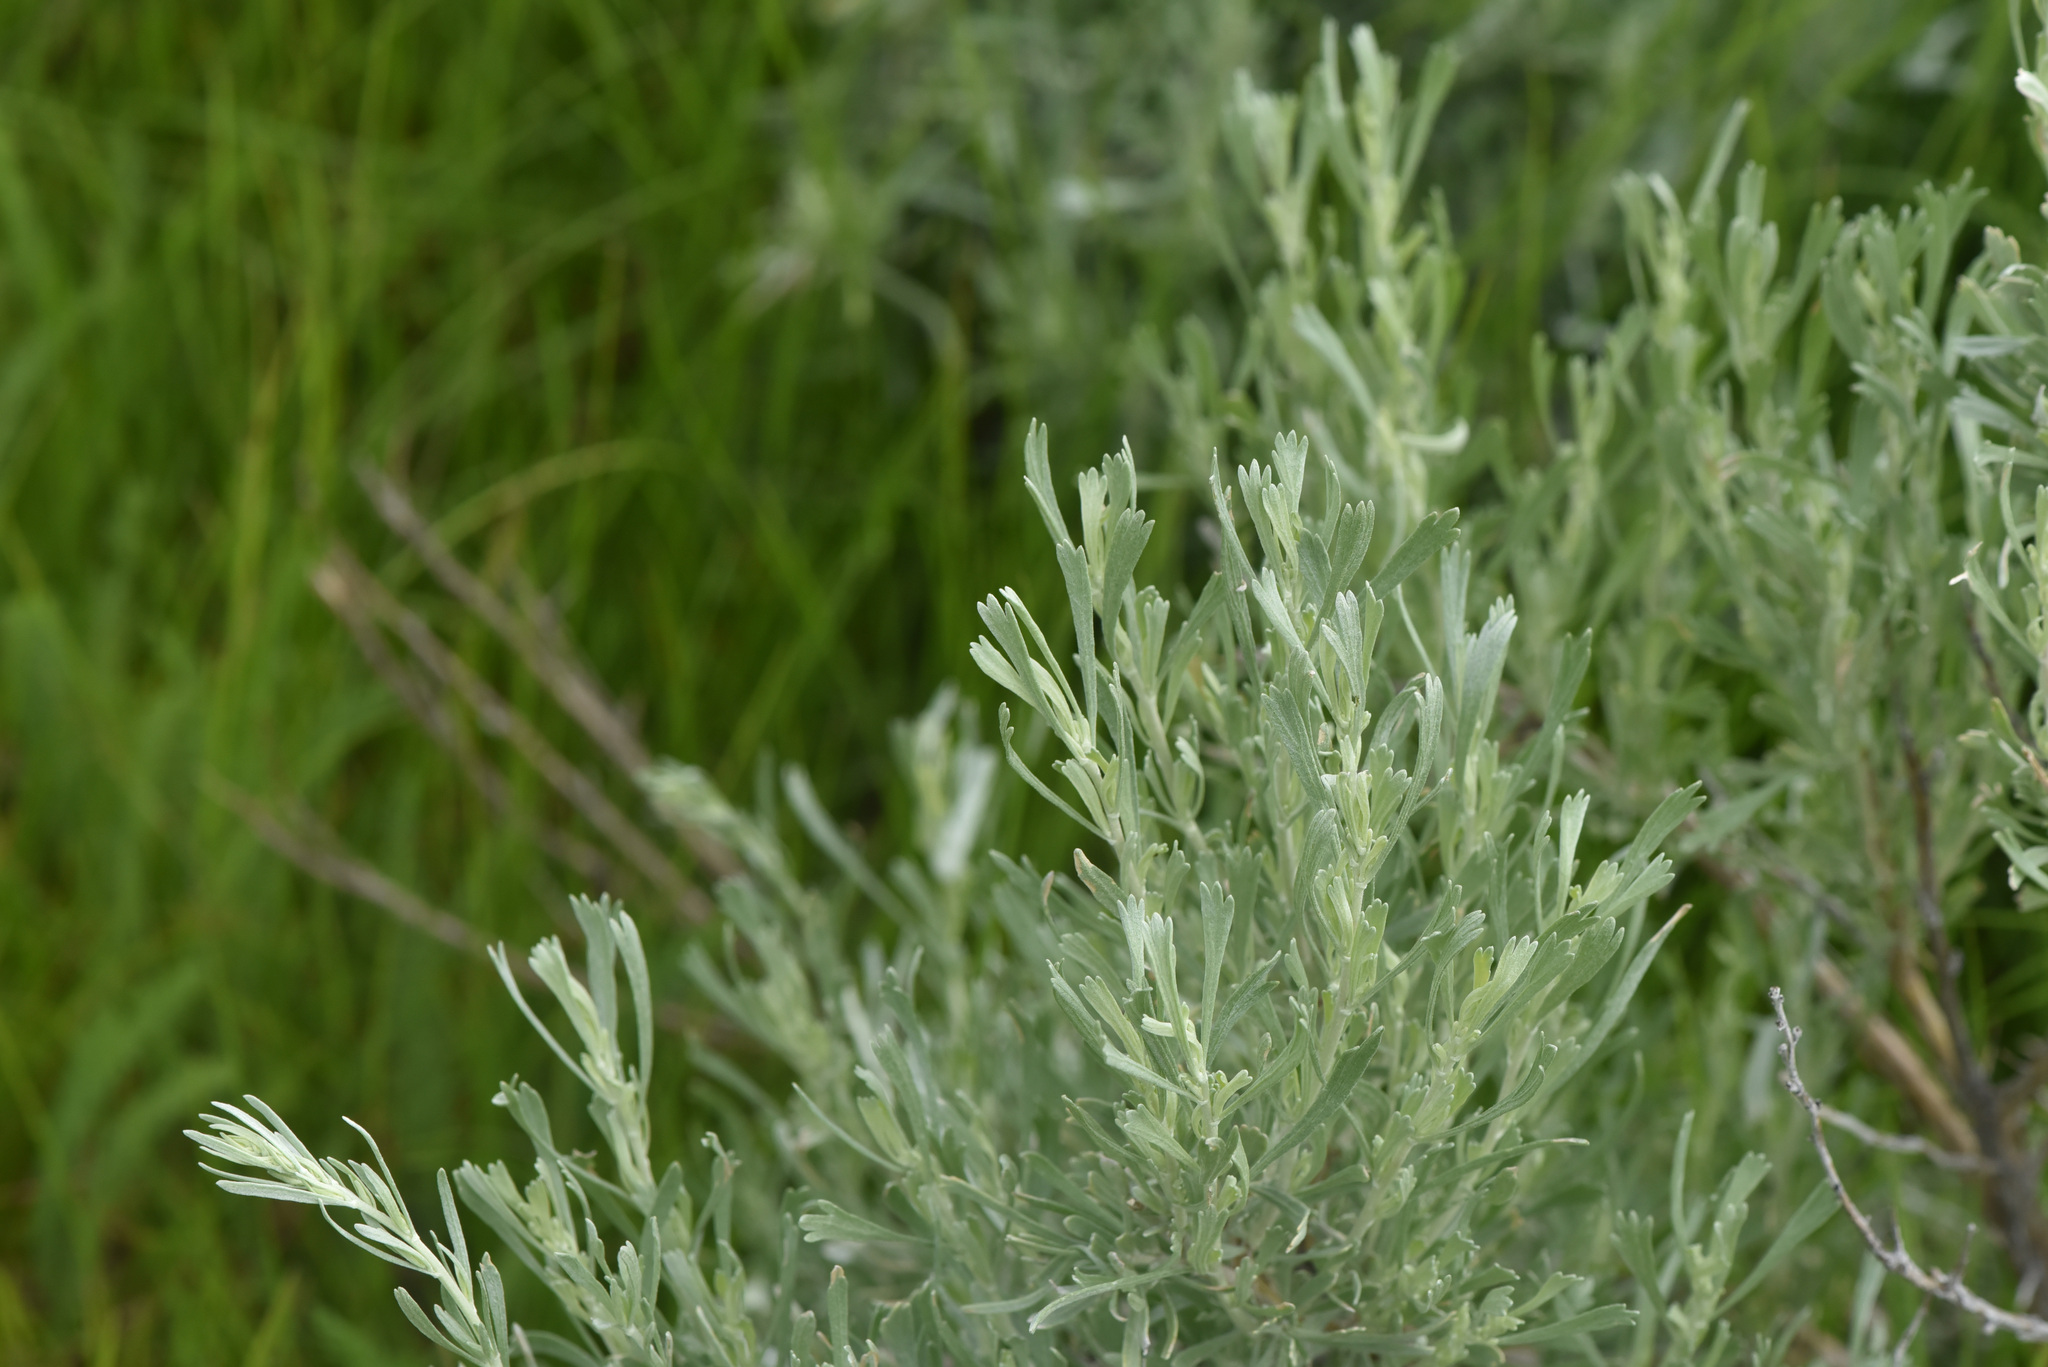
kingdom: Plantae
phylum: Tracheophyta
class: Magnoliopsida
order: Asterales
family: Asteraceae
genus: Artemisia
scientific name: Artemisia tridentata
